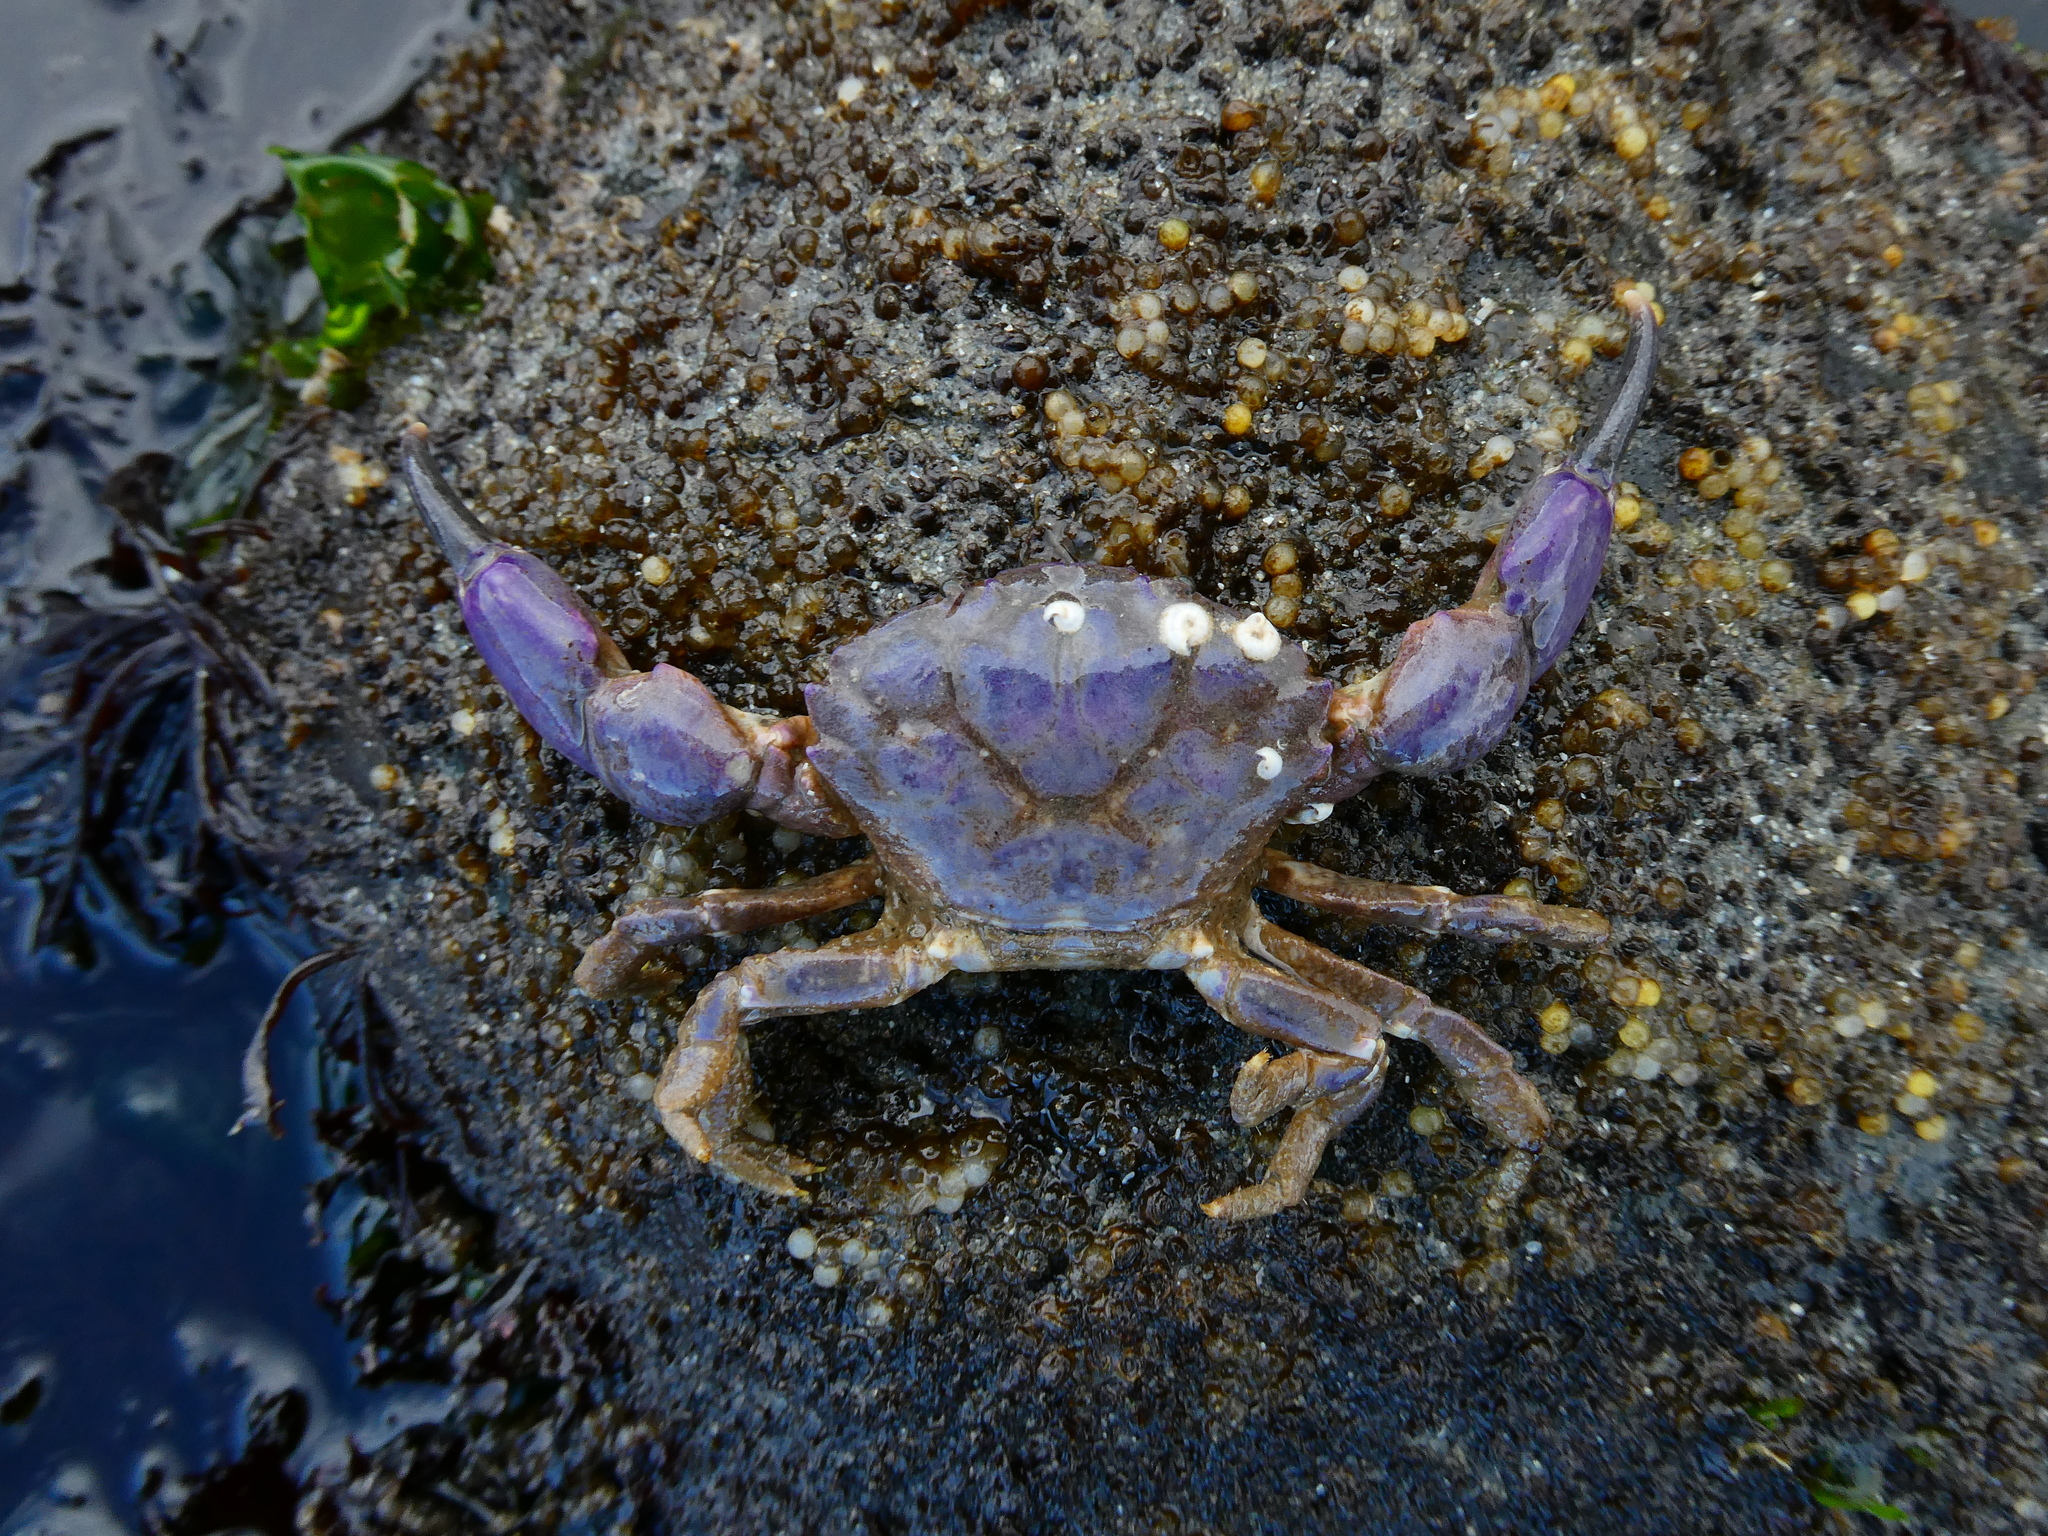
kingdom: Animalia
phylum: Arthropoda
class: Malacostraca
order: Decapoda
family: Panopeidae
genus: Lophopanopeus
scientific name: Lophopanopeus bellus
